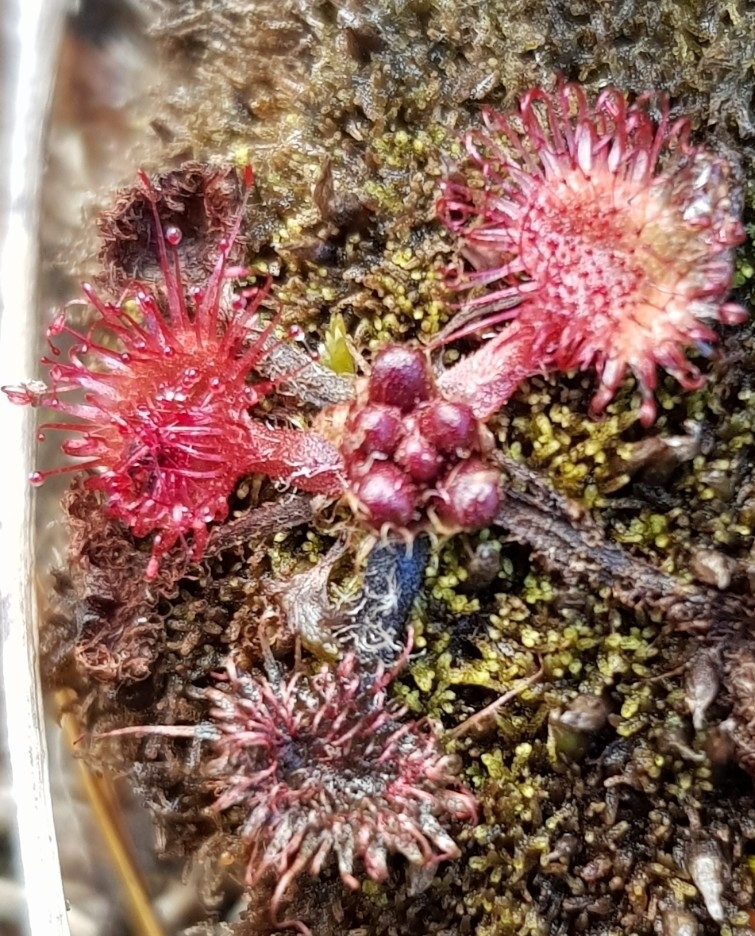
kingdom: Plantae
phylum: Tracheophyta
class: Magnoliopsida
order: Caryophyllales
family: Droseraceae
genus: Drosera
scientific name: Drosera rotundifolia
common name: Round-leaved sundew
